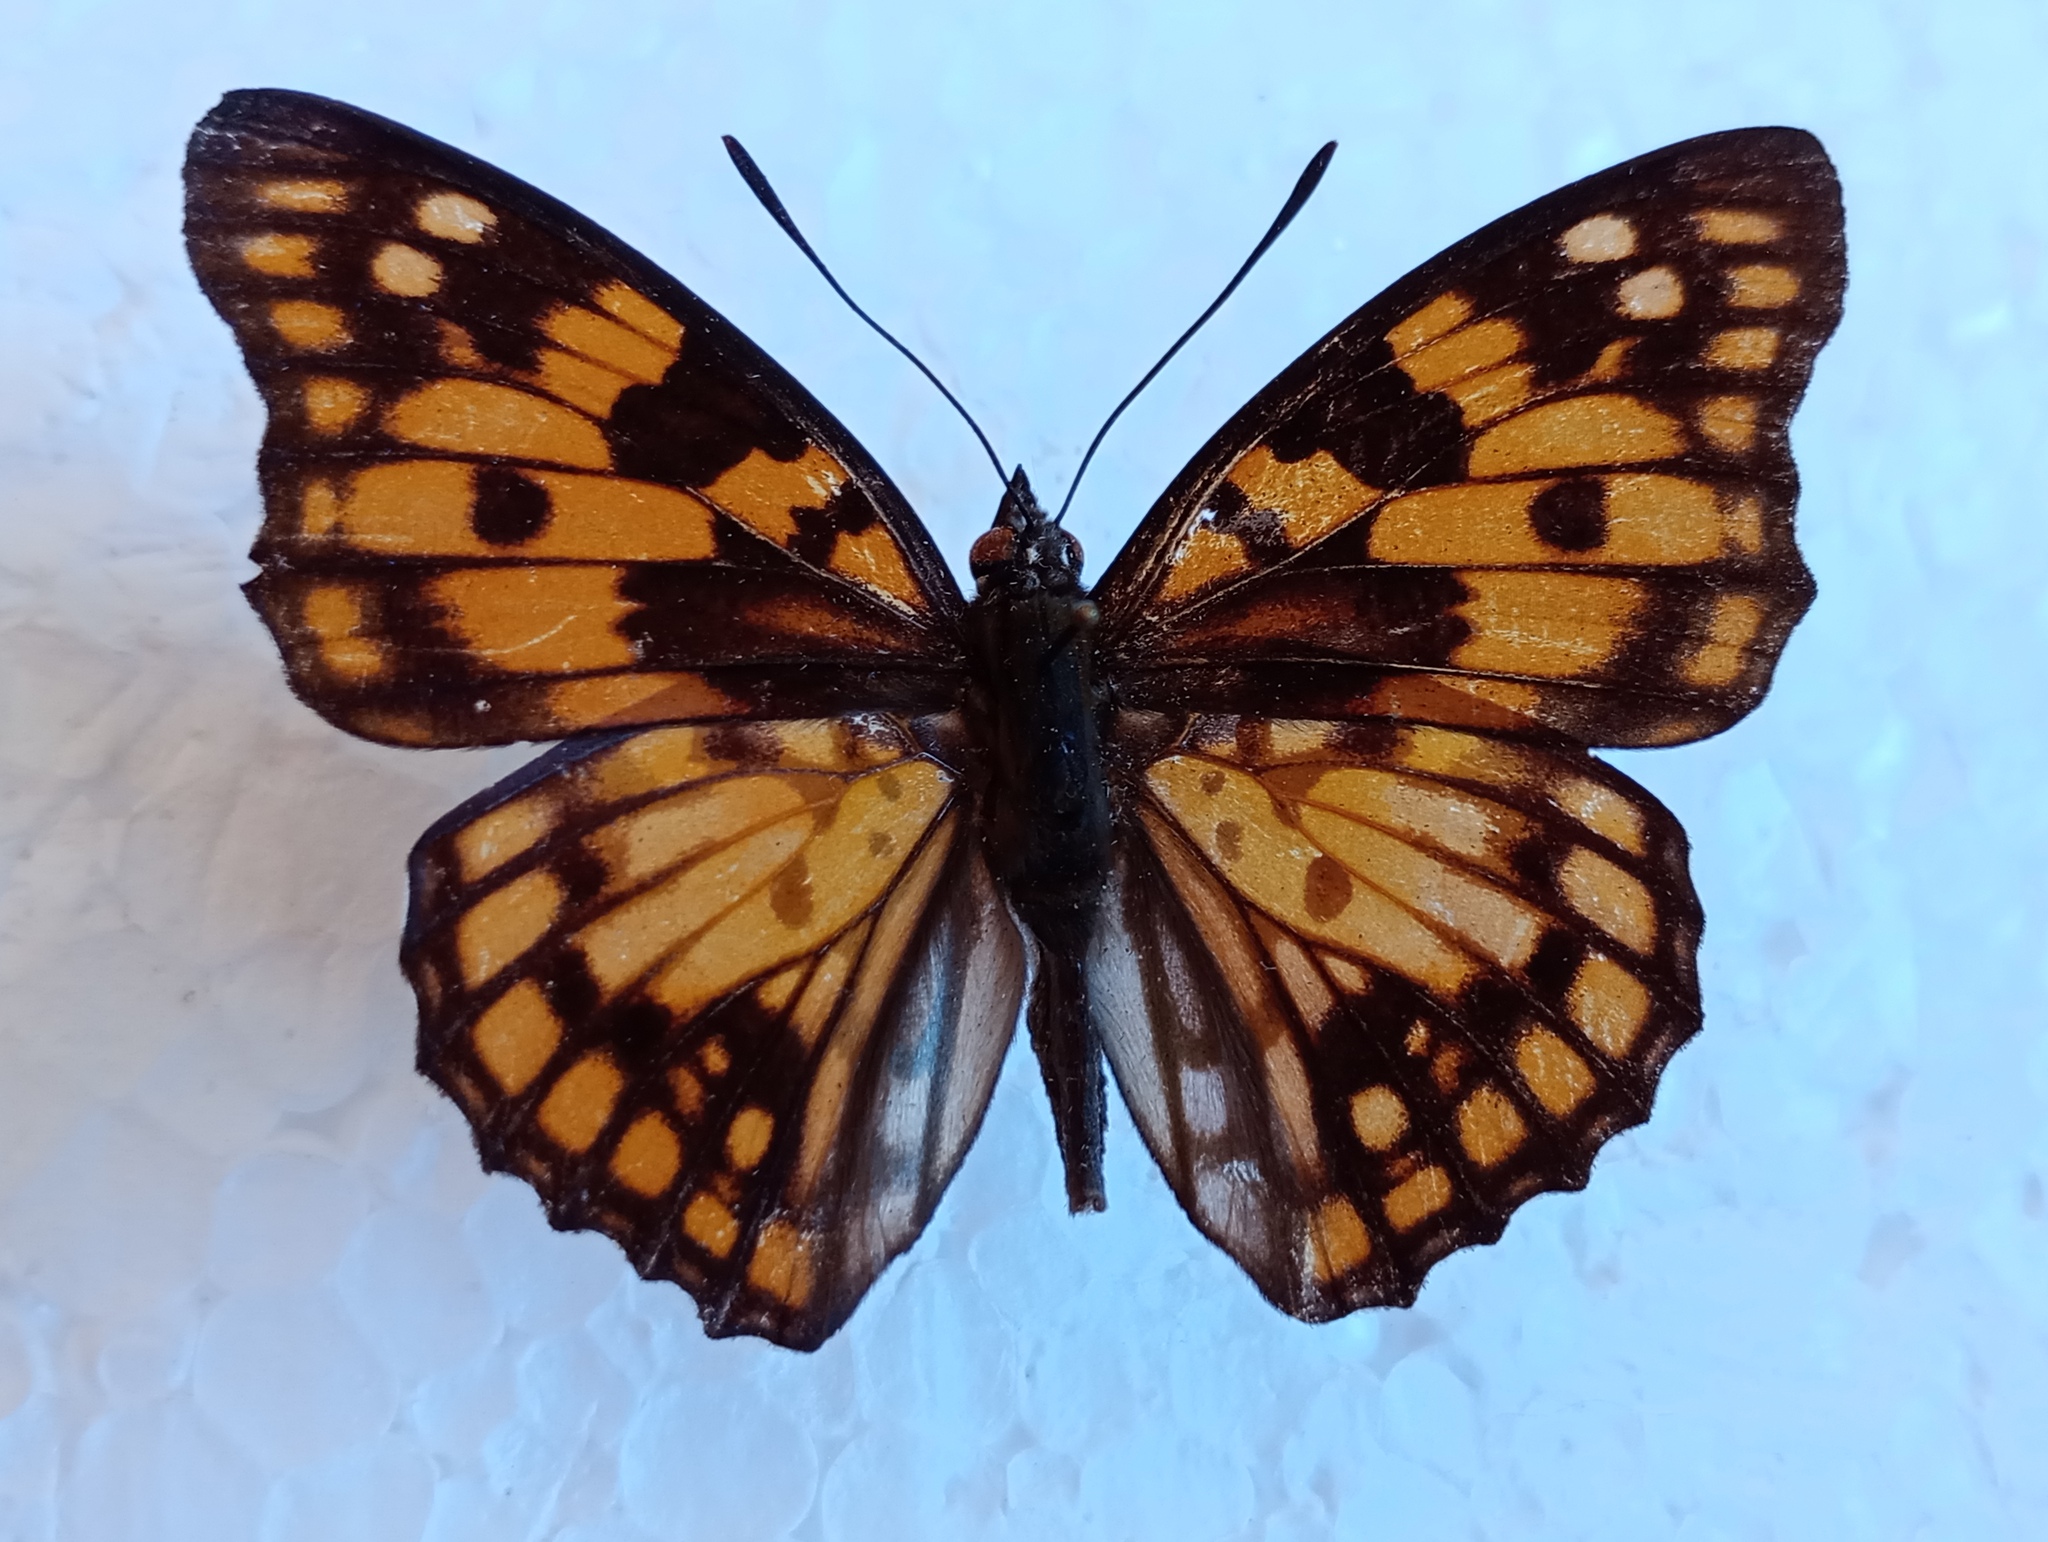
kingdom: Animalia
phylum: Arthropoda
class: Insecta
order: Lepidoptera
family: Nymphalidae
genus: Sephisa
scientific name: Sephisa dichroa
